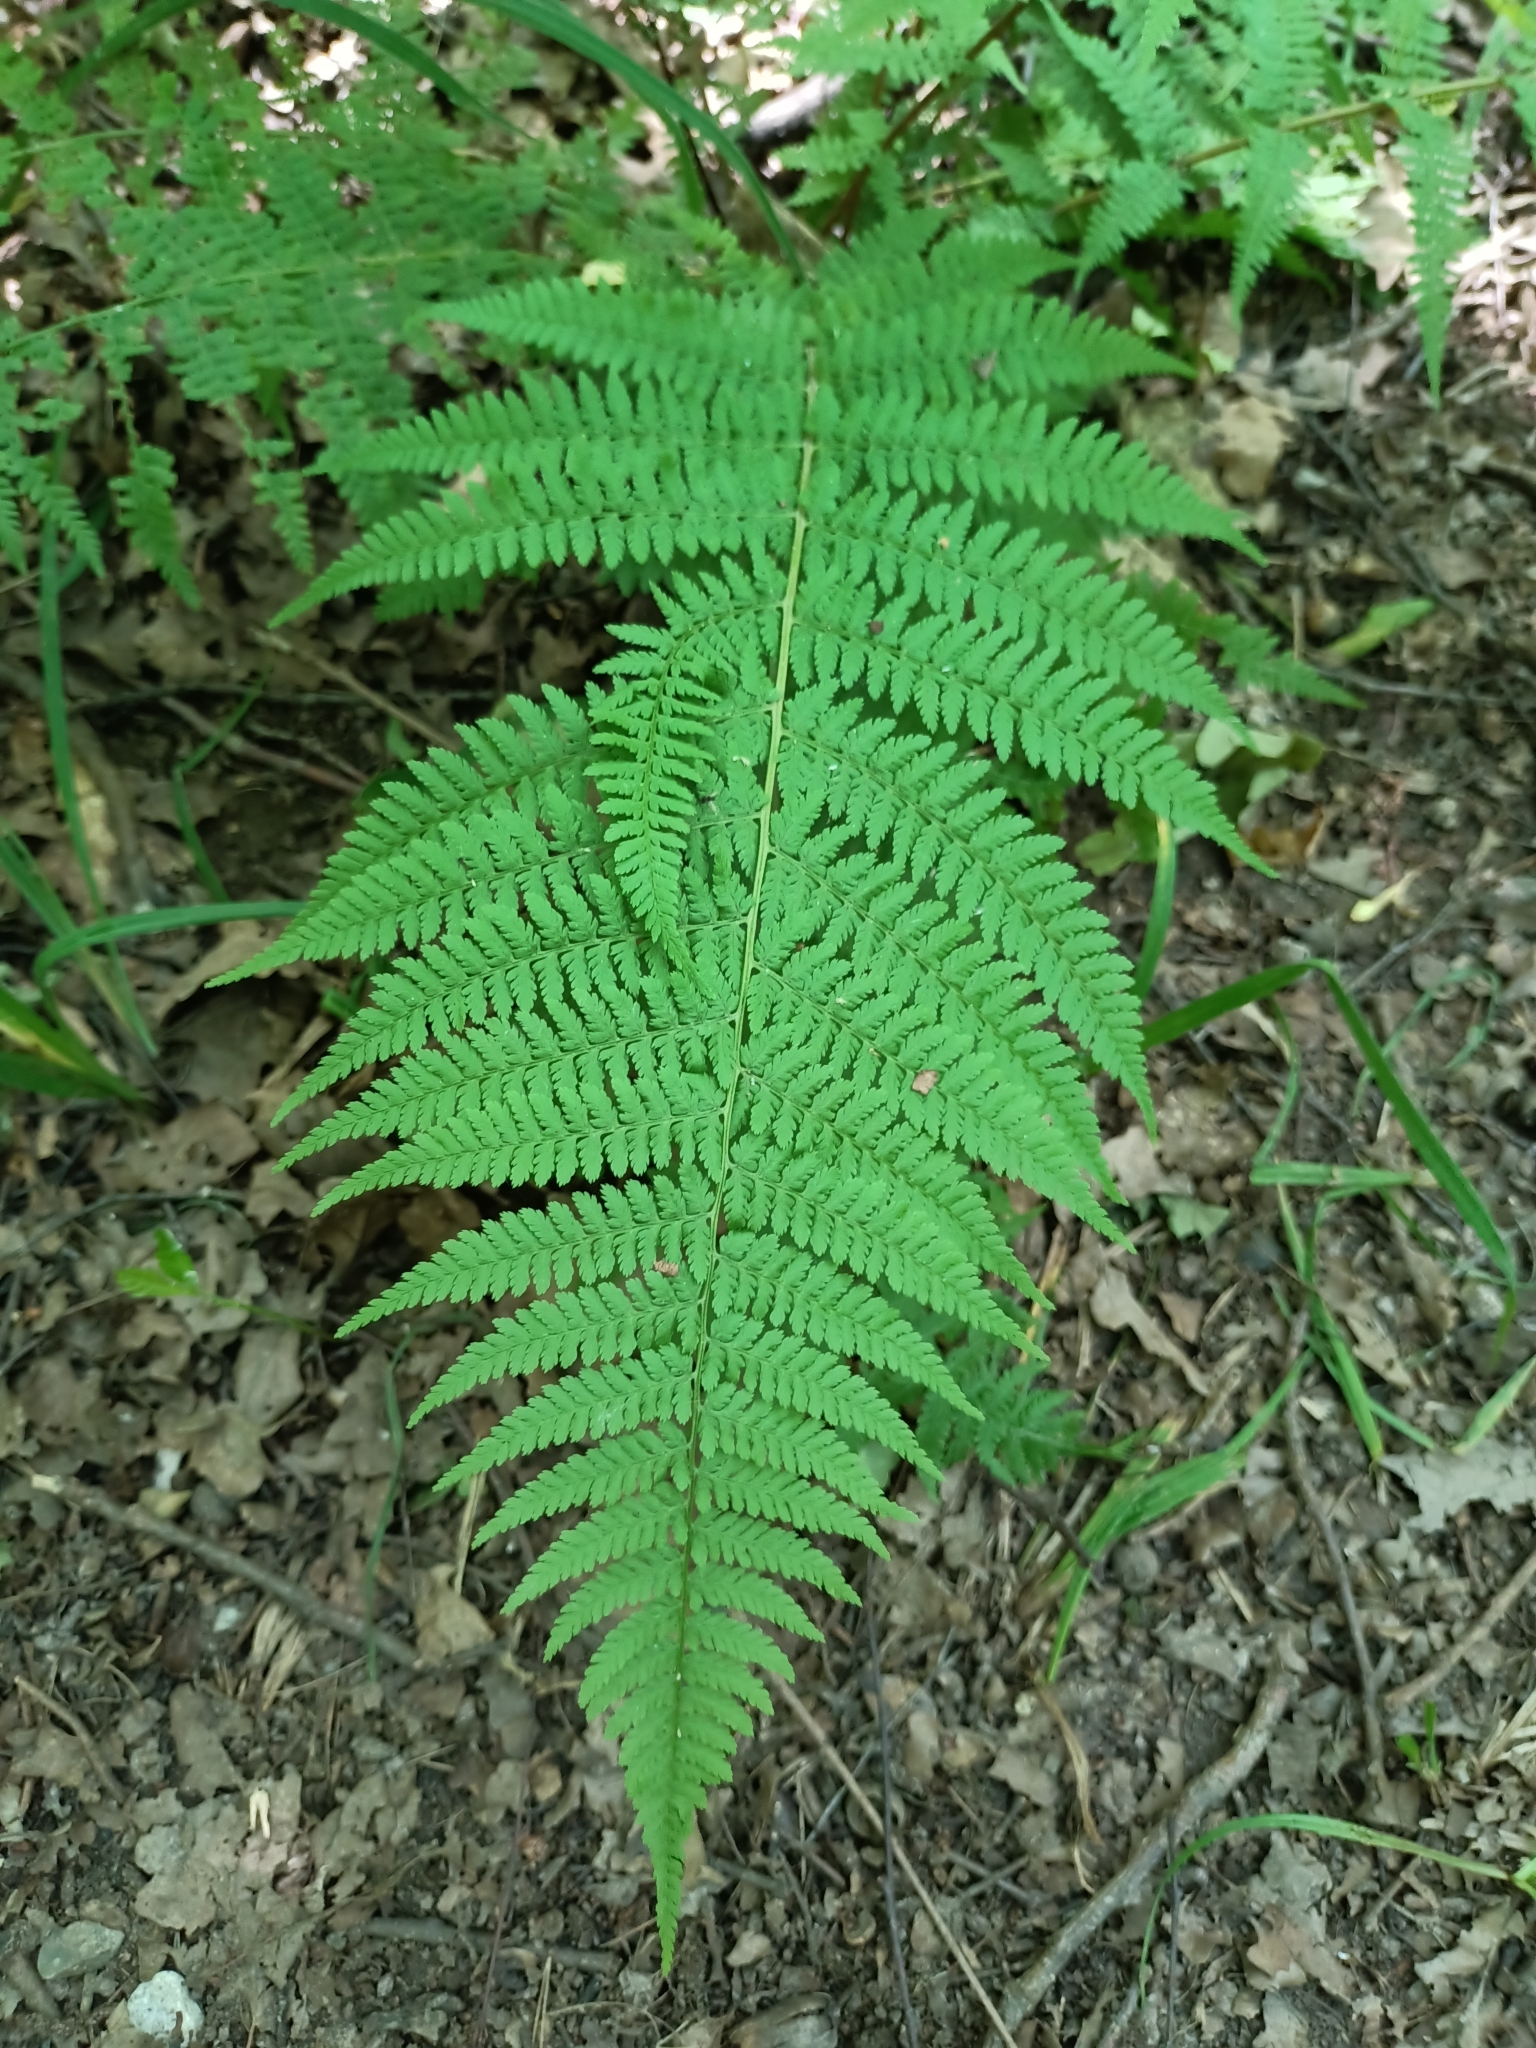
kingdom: Plantae
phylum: Tracheophyta
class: Polypodiopsida
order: Polypodiales
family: Athyriaceae
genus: Athyrium
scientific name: Athyrium filix-femina
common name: Lady fern
